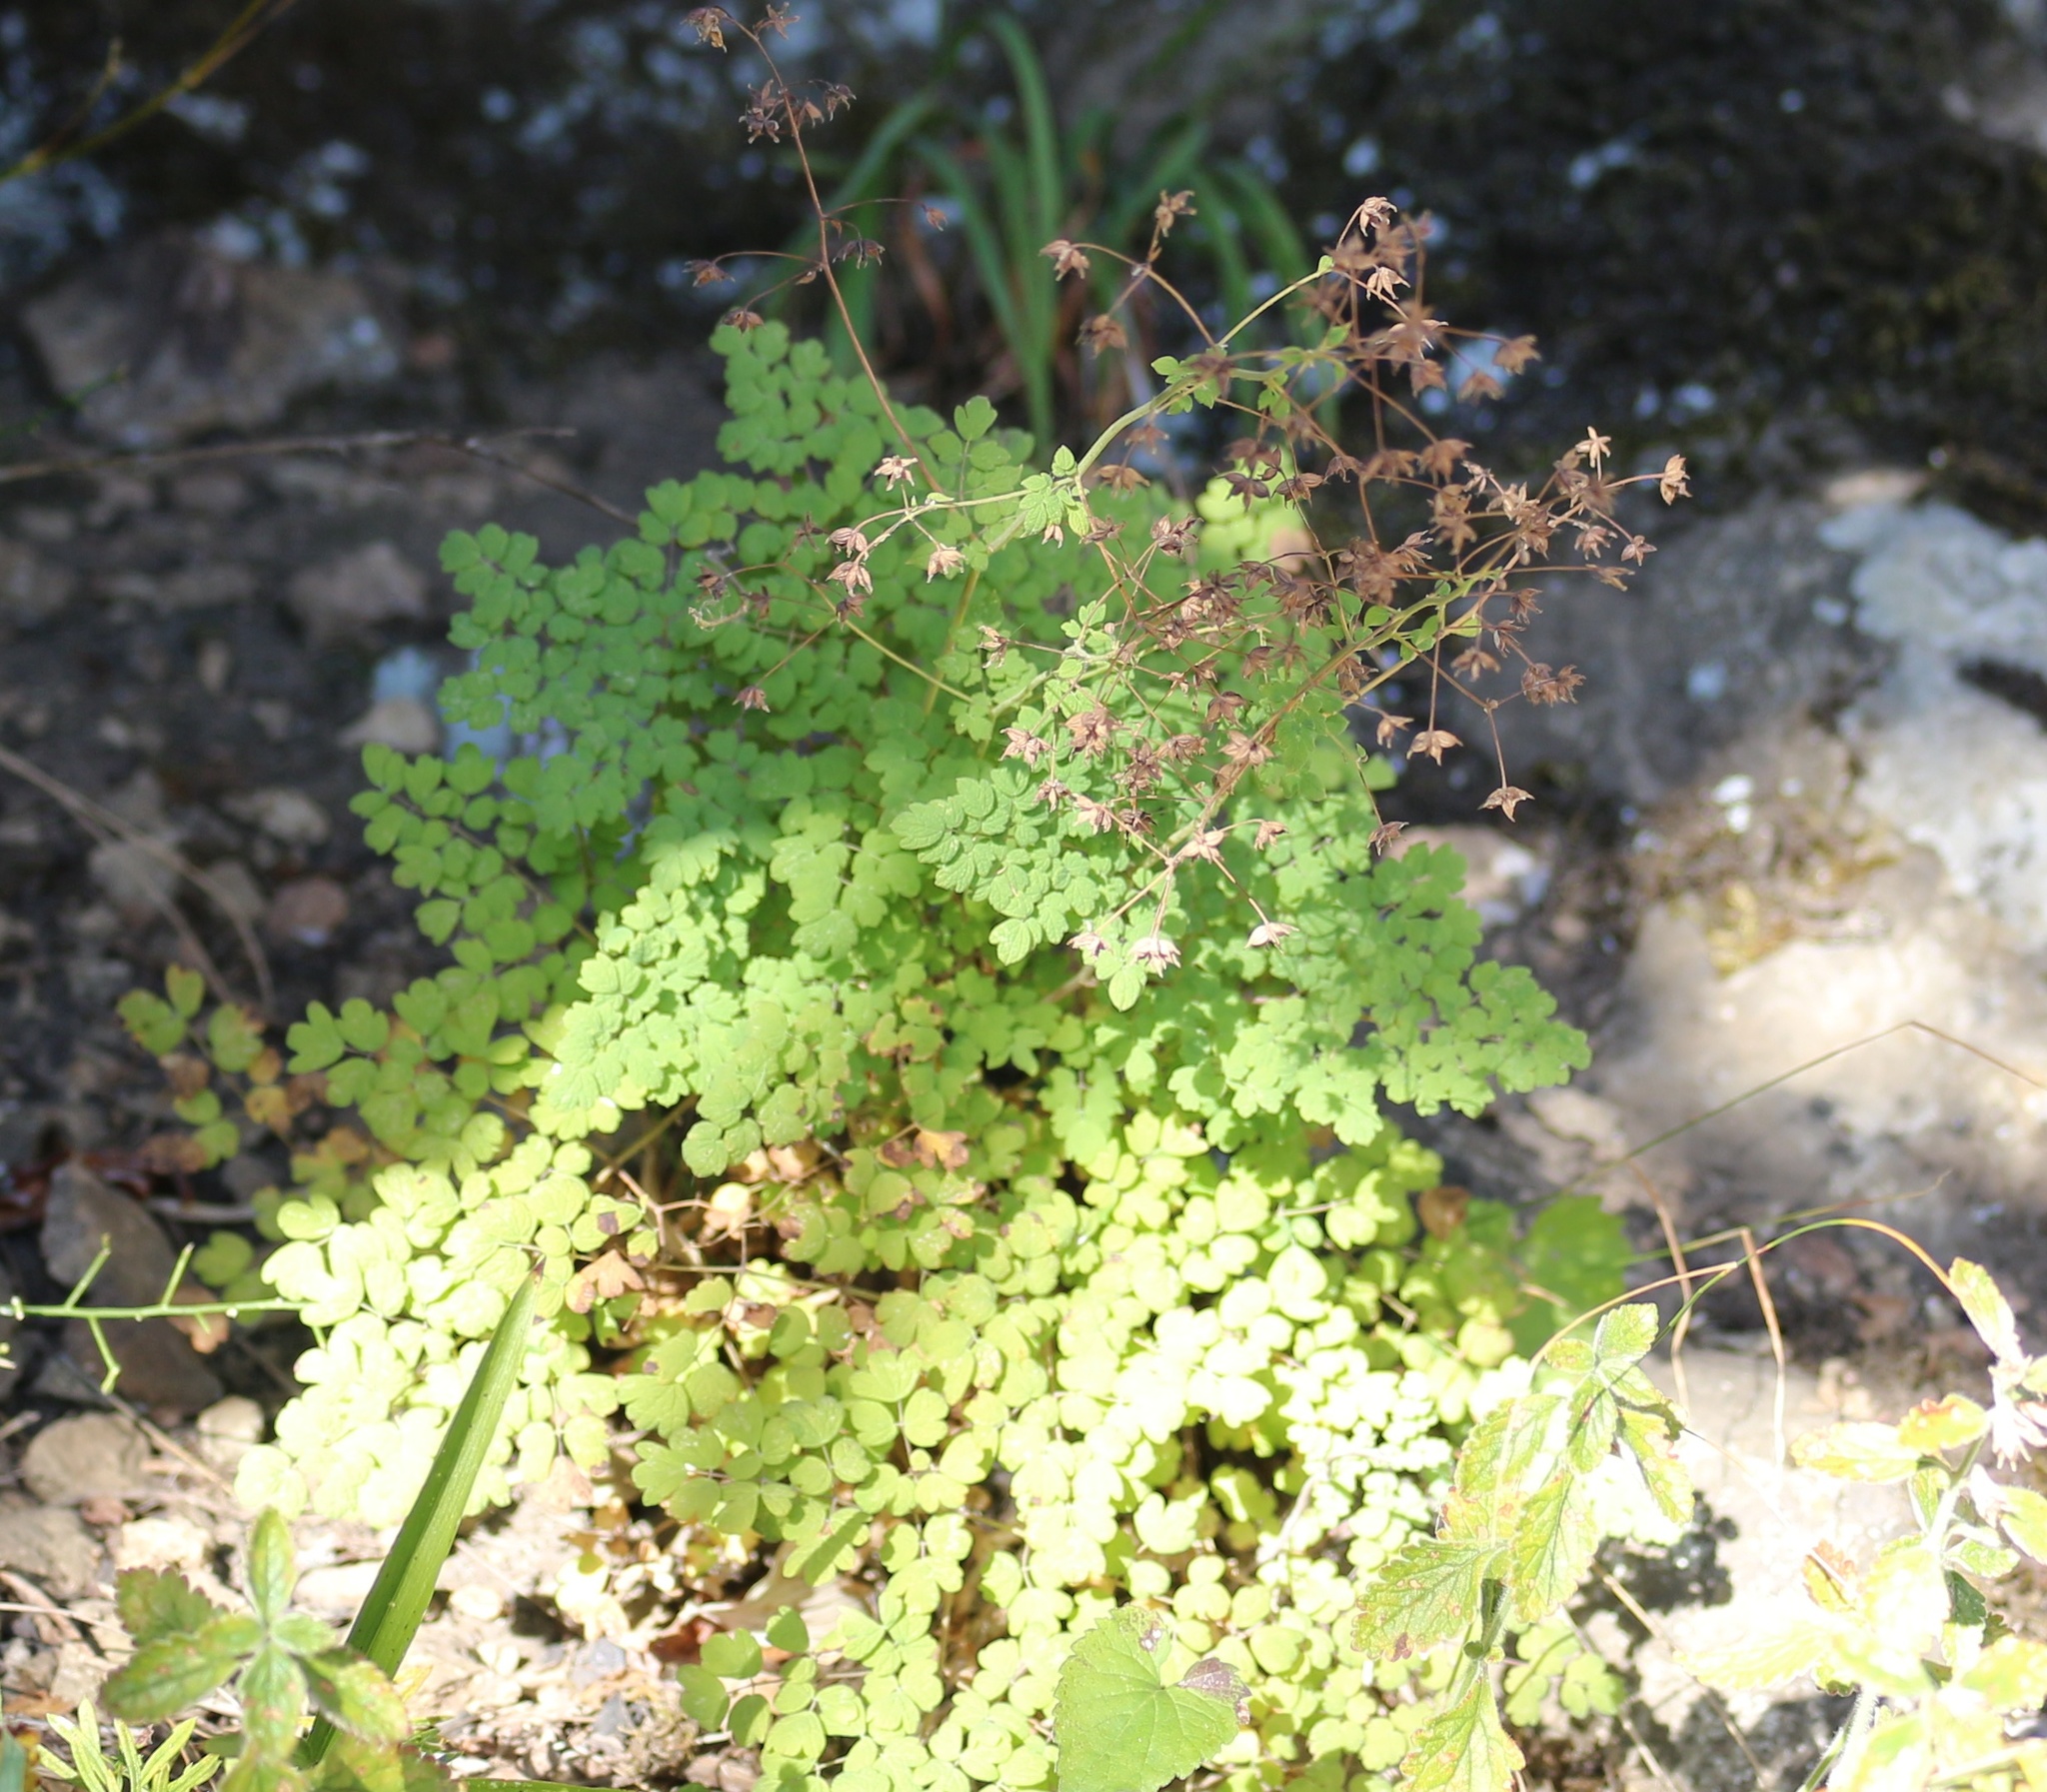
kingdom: Plantae
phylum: Tracheophyta
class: Magnoliopsida
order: Ranunculales
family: Ranunculaceae
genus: Thalictrum
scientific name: Thalictrum foetidum
